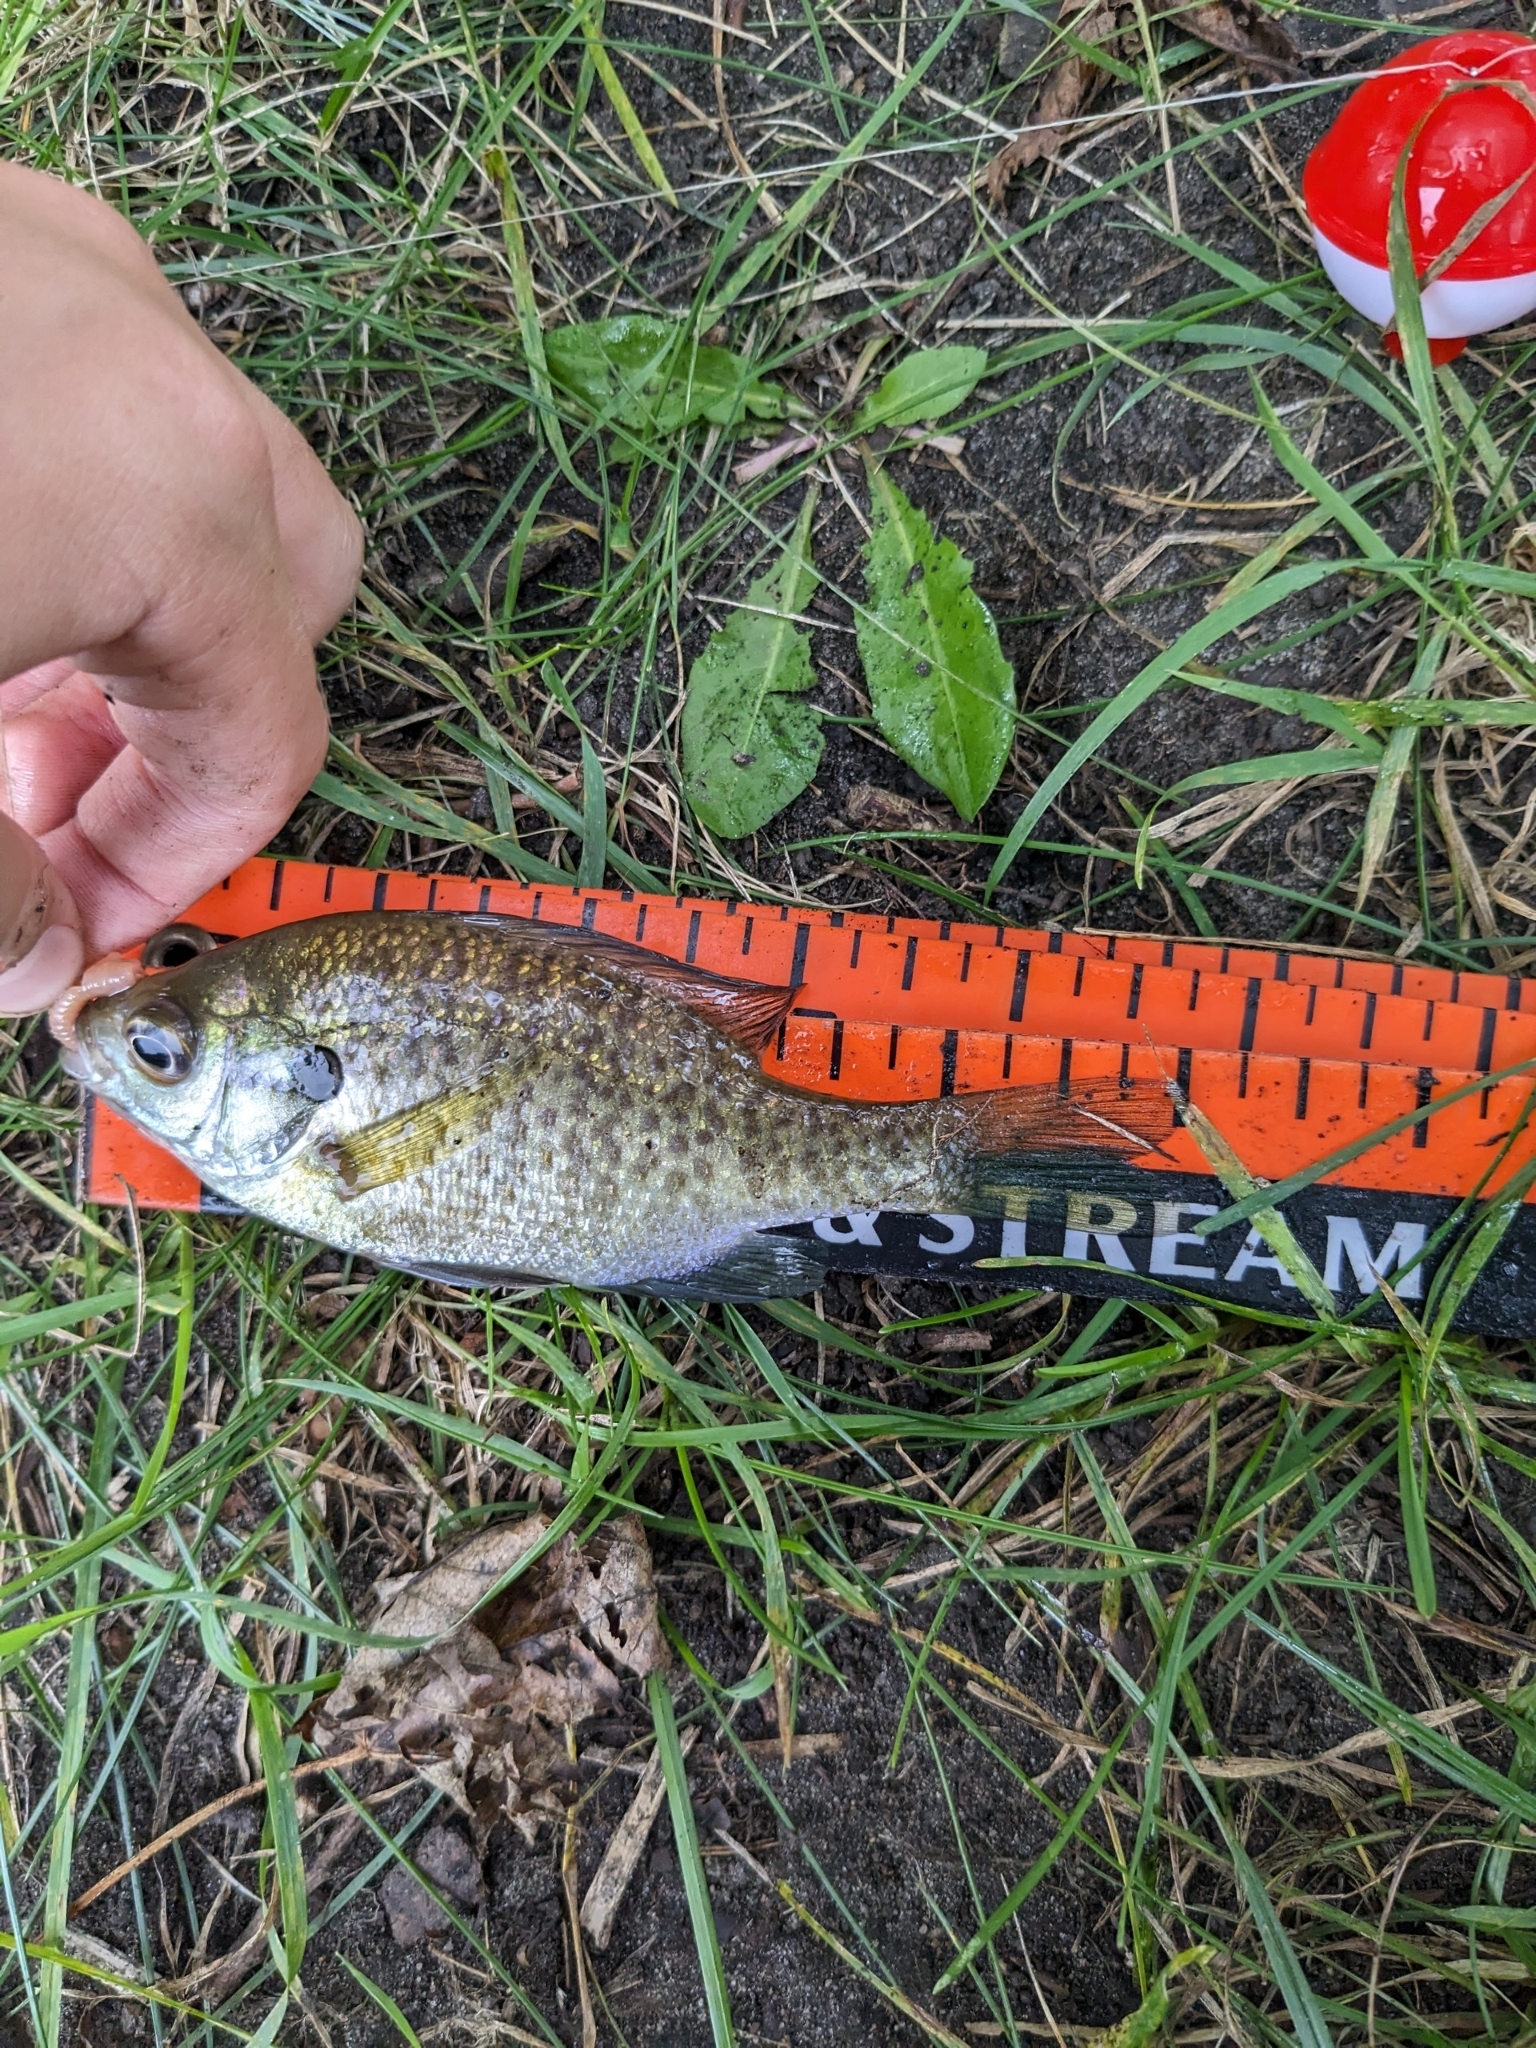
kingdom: Animalia
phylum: Chordata
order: Perciformes
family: Centrarchidae
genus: Lepomis
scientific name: Lepomis macrochirus
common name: Bluegill
